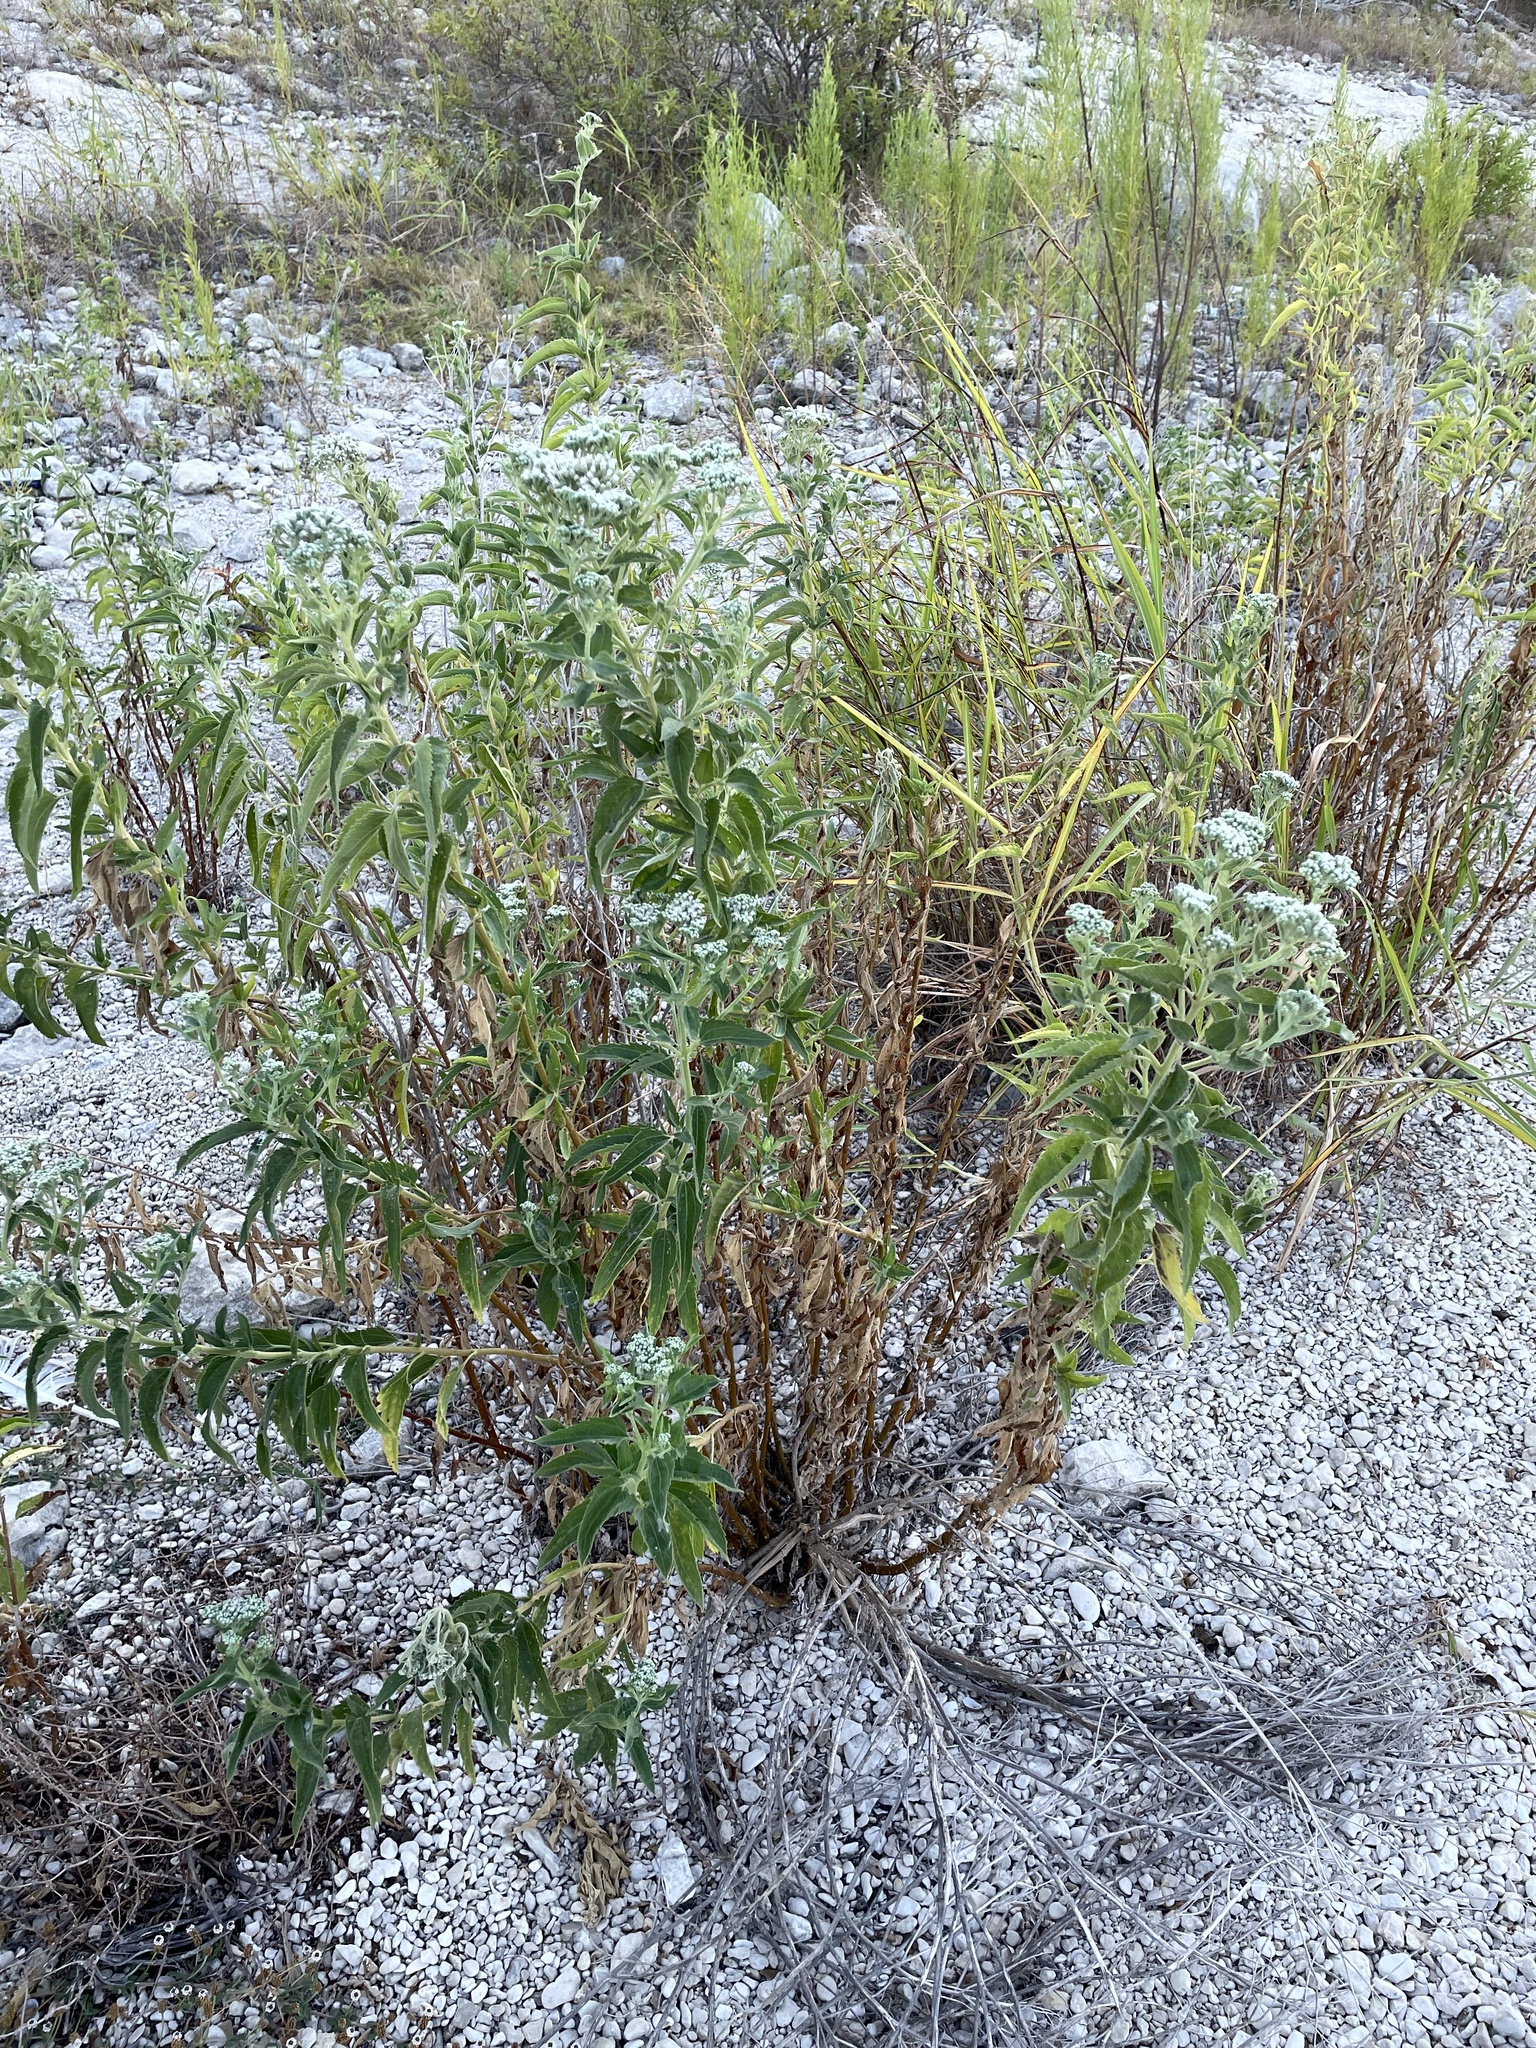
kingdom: Plantae
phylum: Tracheophyta
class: Magnoliopsida
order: Asterales
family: Asteraceae
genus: Eupatorium
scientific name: Eupatorium serotinum
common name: Late boneset
